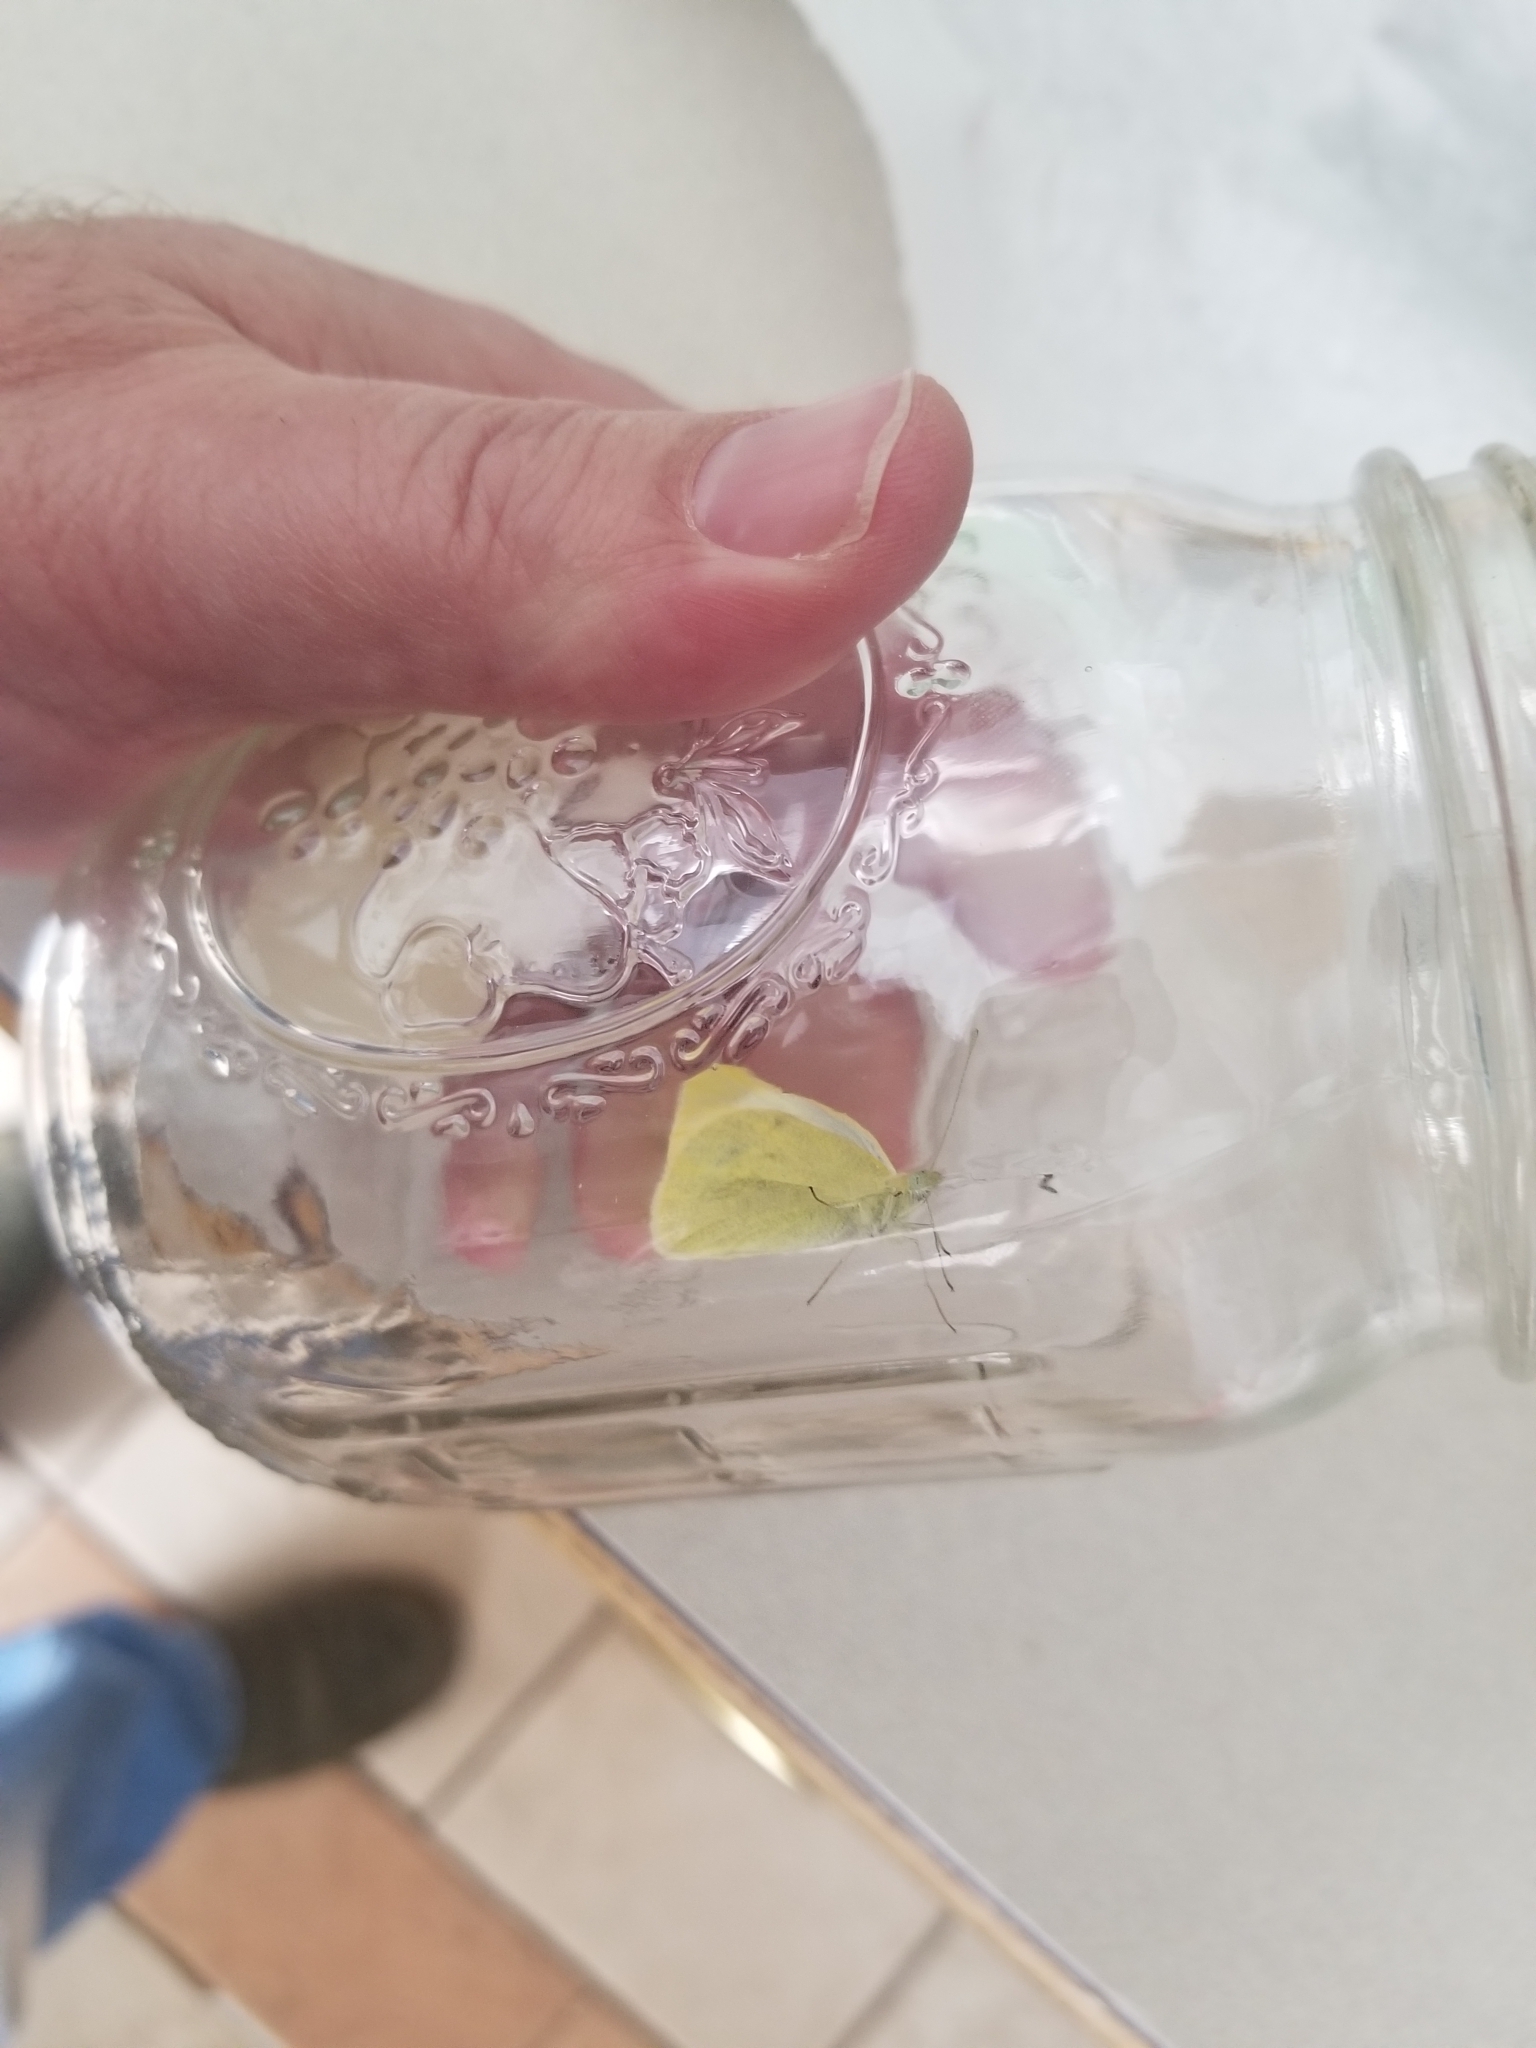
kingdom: Animalia
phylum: Arthropoda
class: Insecta
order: Lepidoptera
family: Pieridae
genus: Pieris
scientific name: Pieris rapae
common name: Small white
